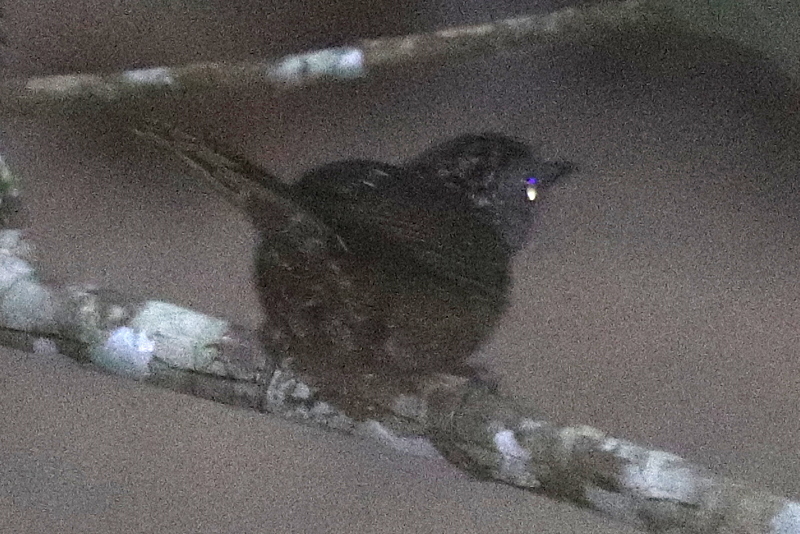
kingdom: Animalia
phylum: Chordata
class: Aves
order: Passeriformes
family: Pellorneidae
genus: Napothera
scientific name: Napothera brevicaudata
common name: Streaked wren-babbler
